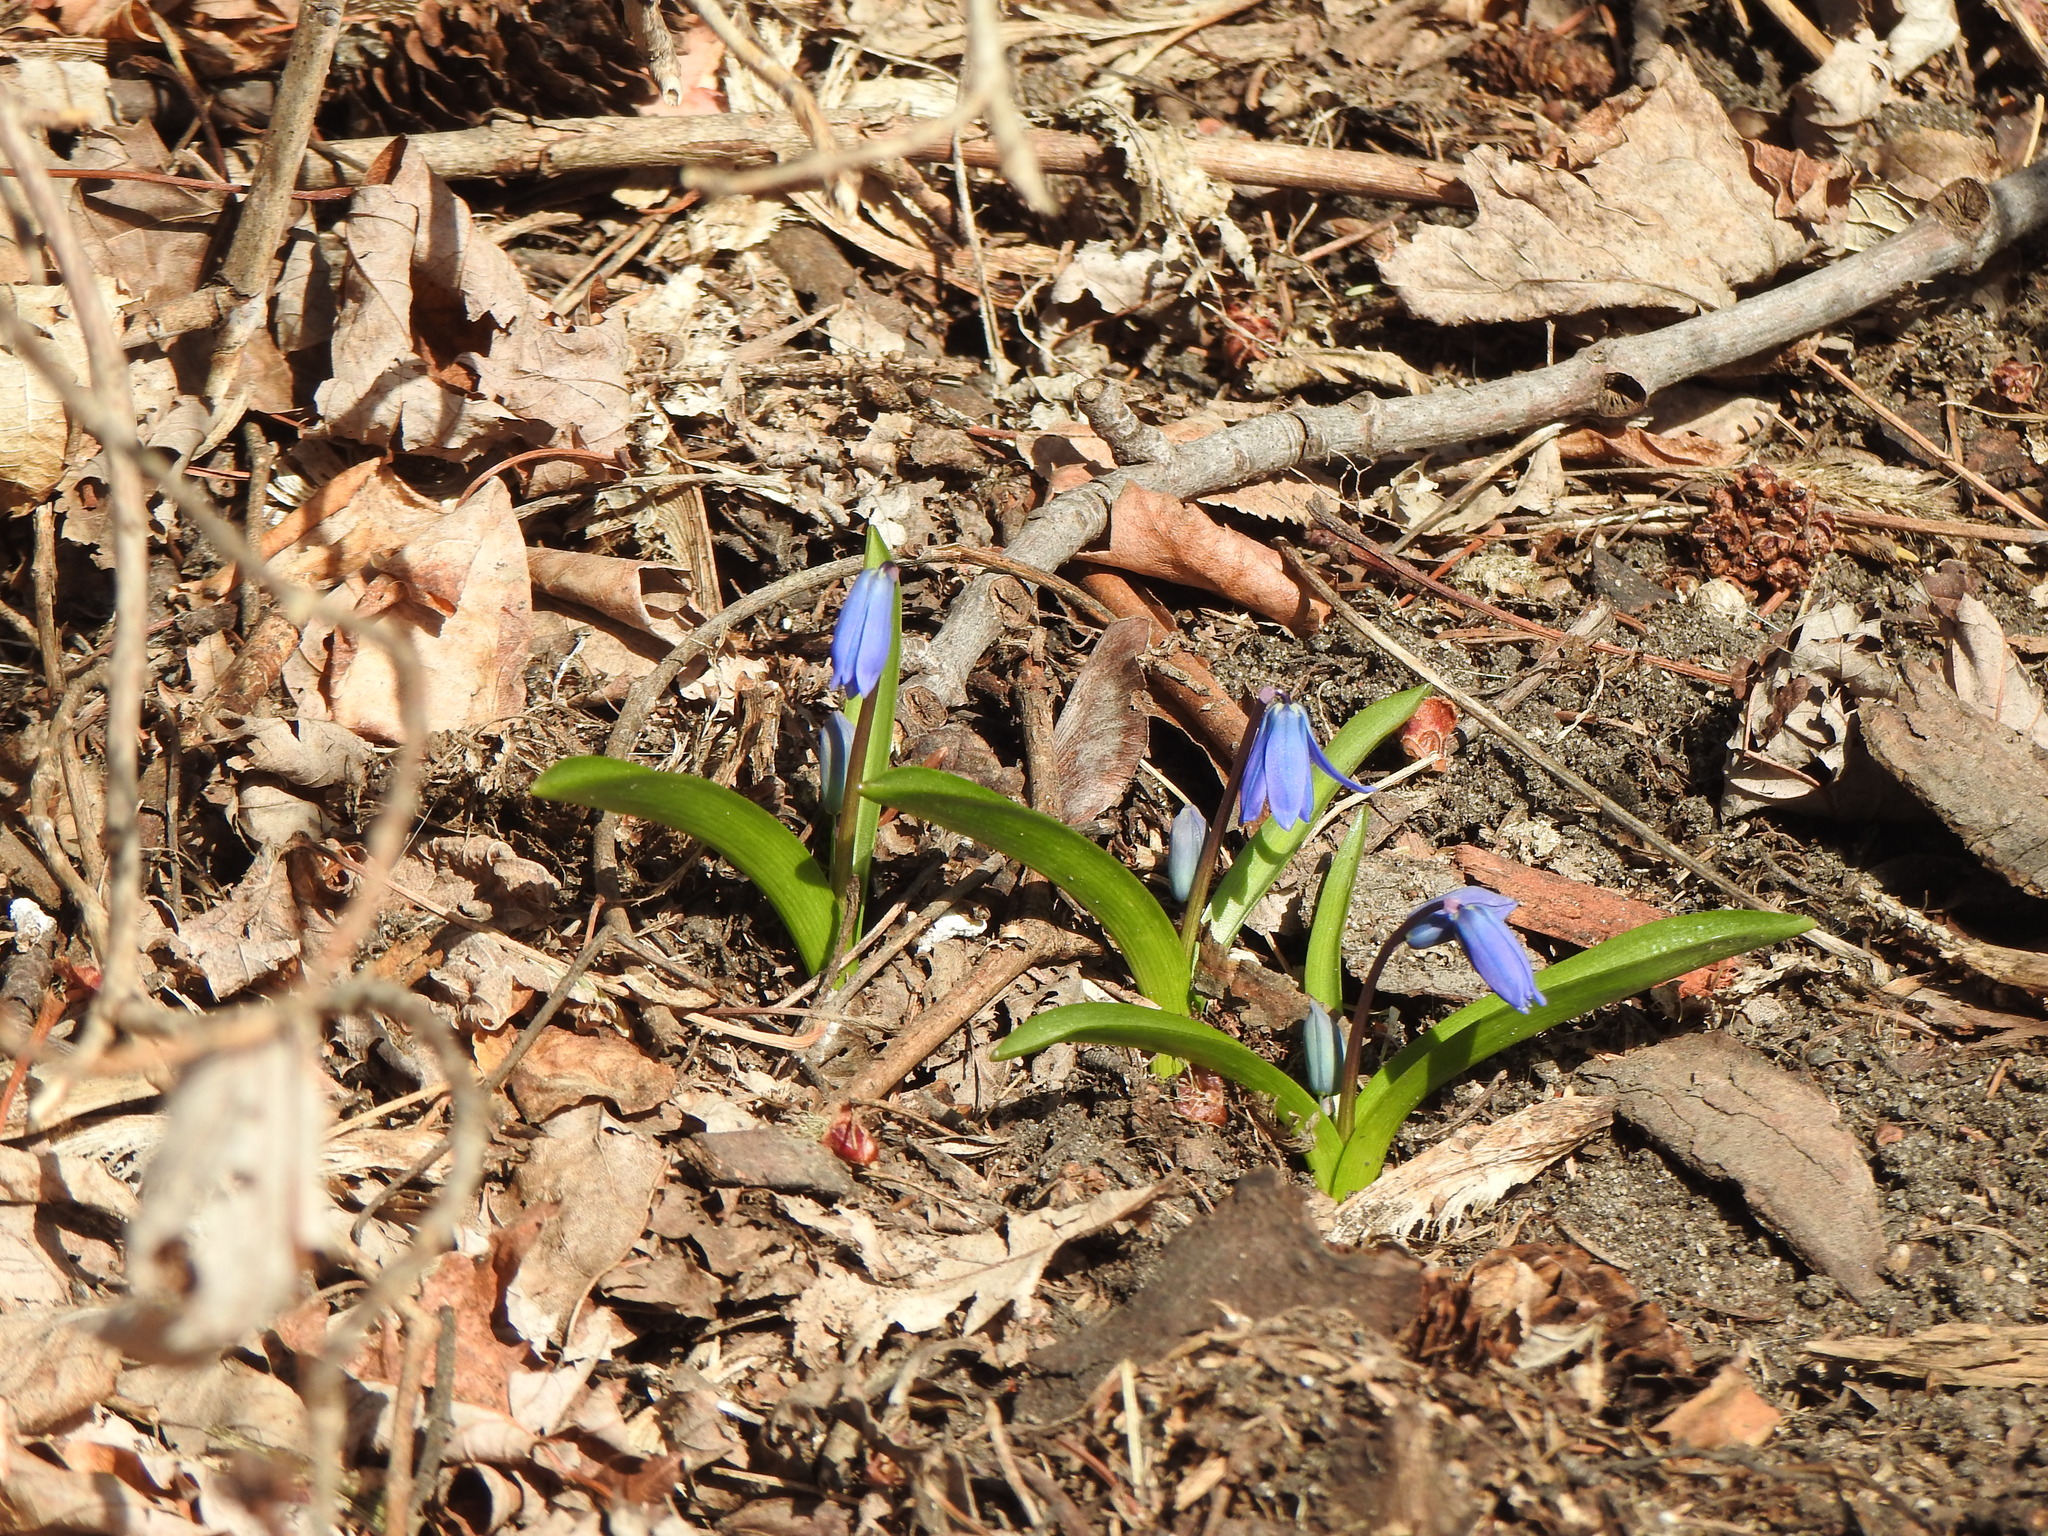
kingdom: Plantae
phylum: Tracheophyta
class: Liliopsida
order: Asparagales
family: Asparagaceae
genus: Scilla
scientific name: Scilla siberica
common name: Siberian squill
